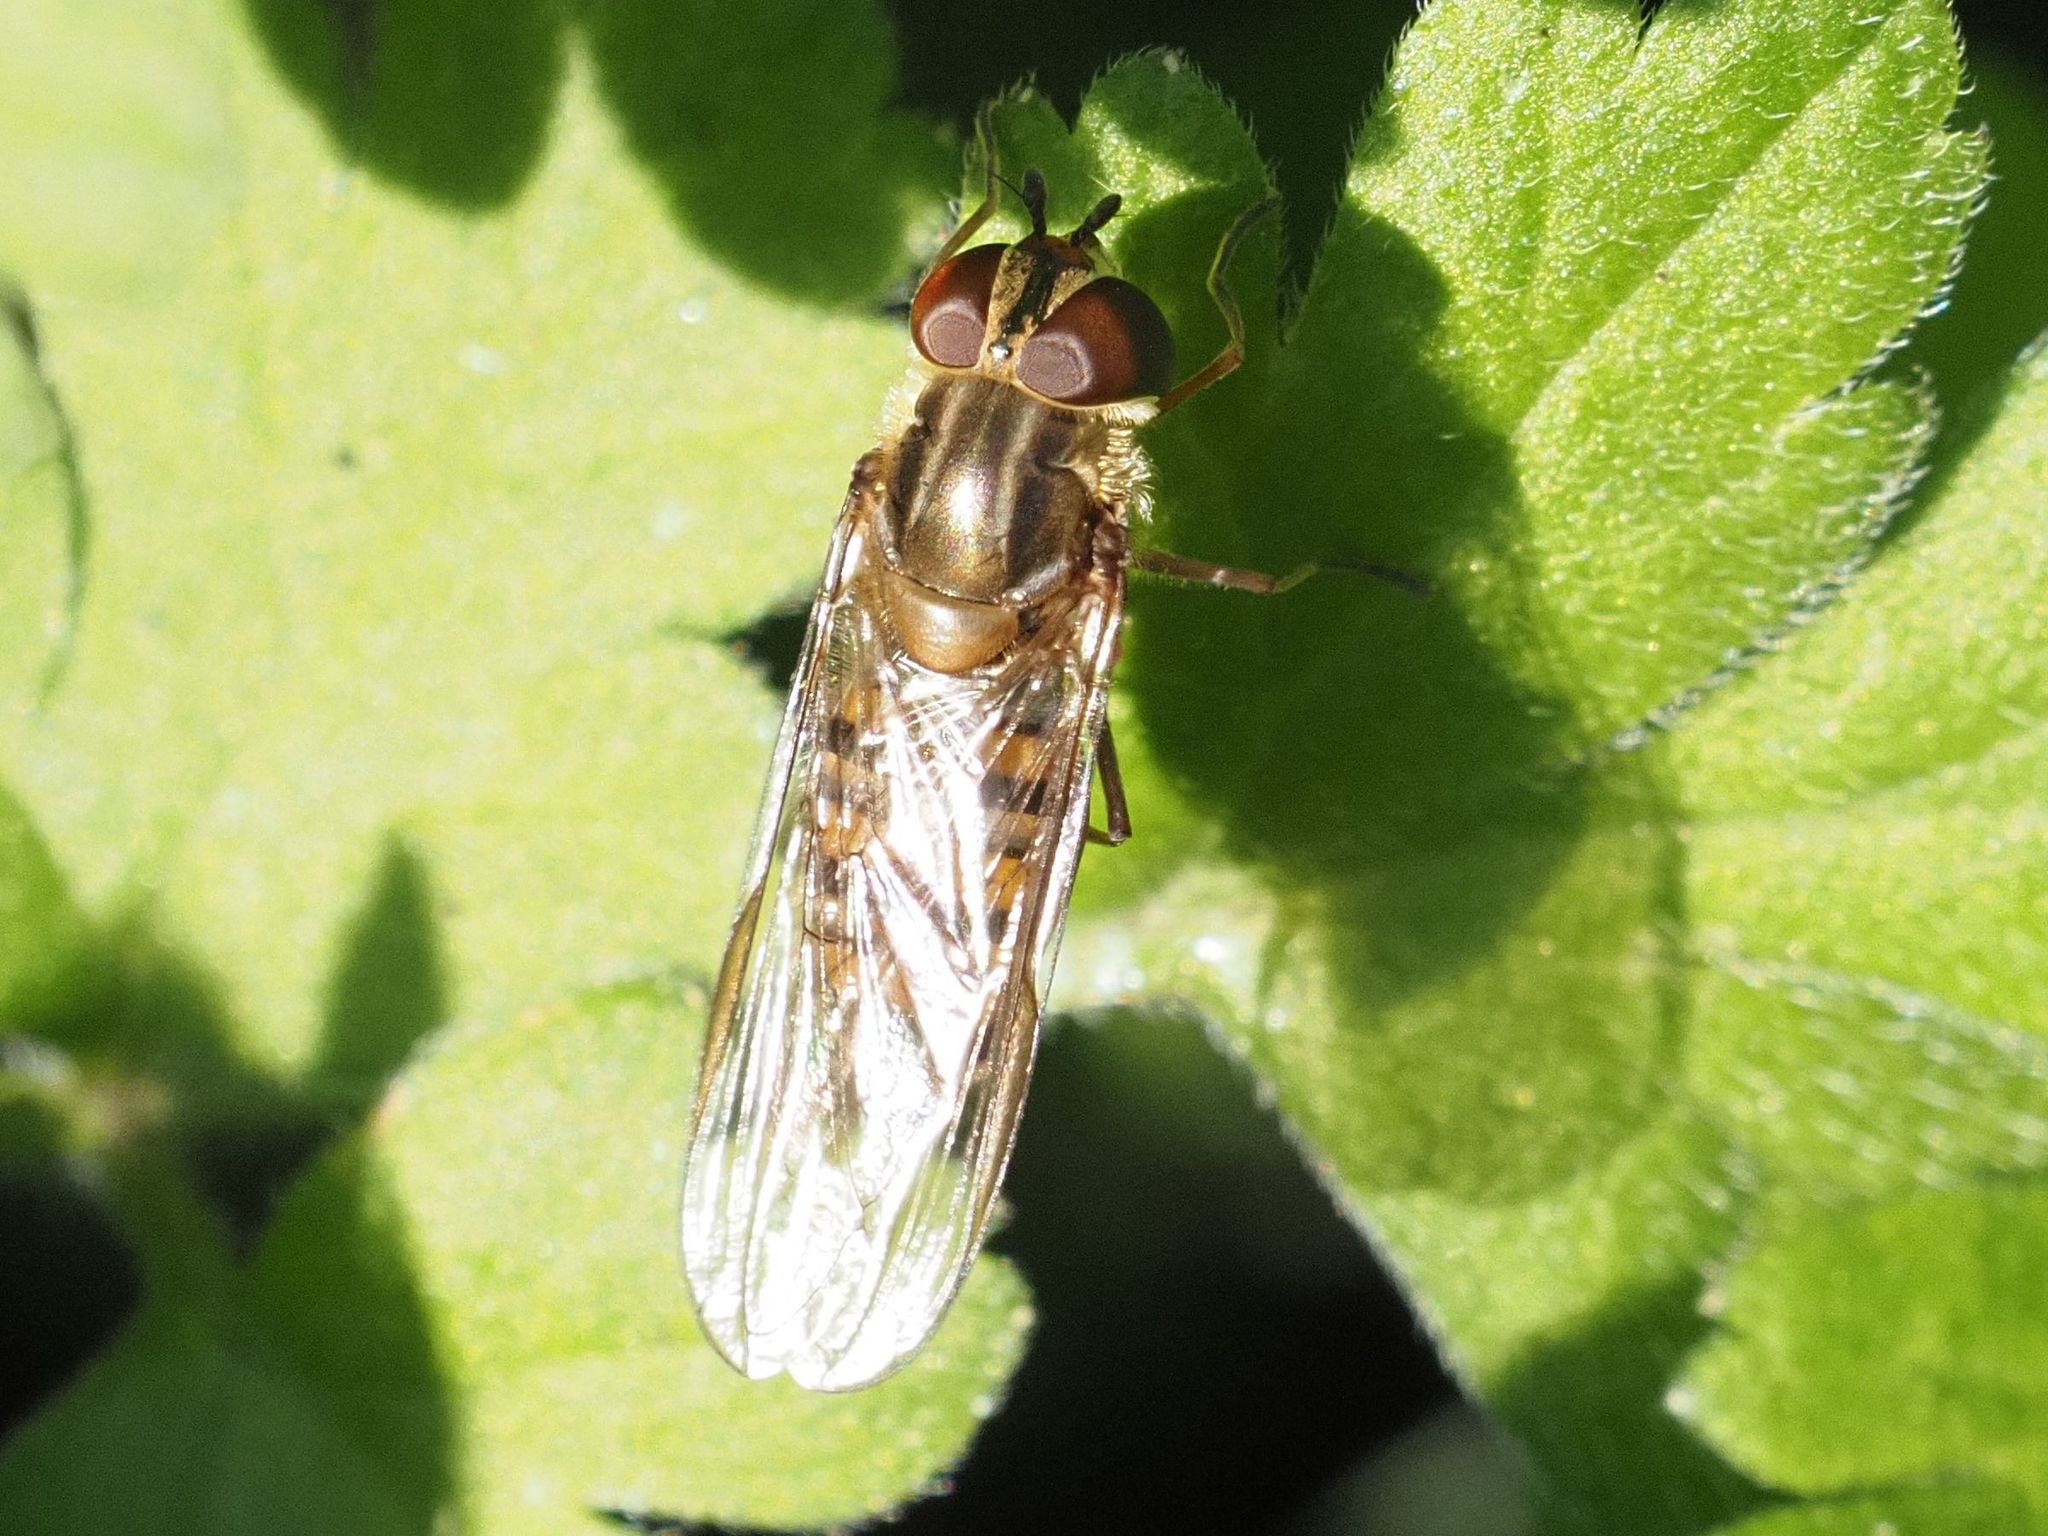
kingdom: Animalia
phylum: Arthropoda
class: Insecta
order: Diptera
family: Syrphidae
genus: Episyrphus
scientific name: Episyrphus balteatus
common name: Marmalade hoverfly
